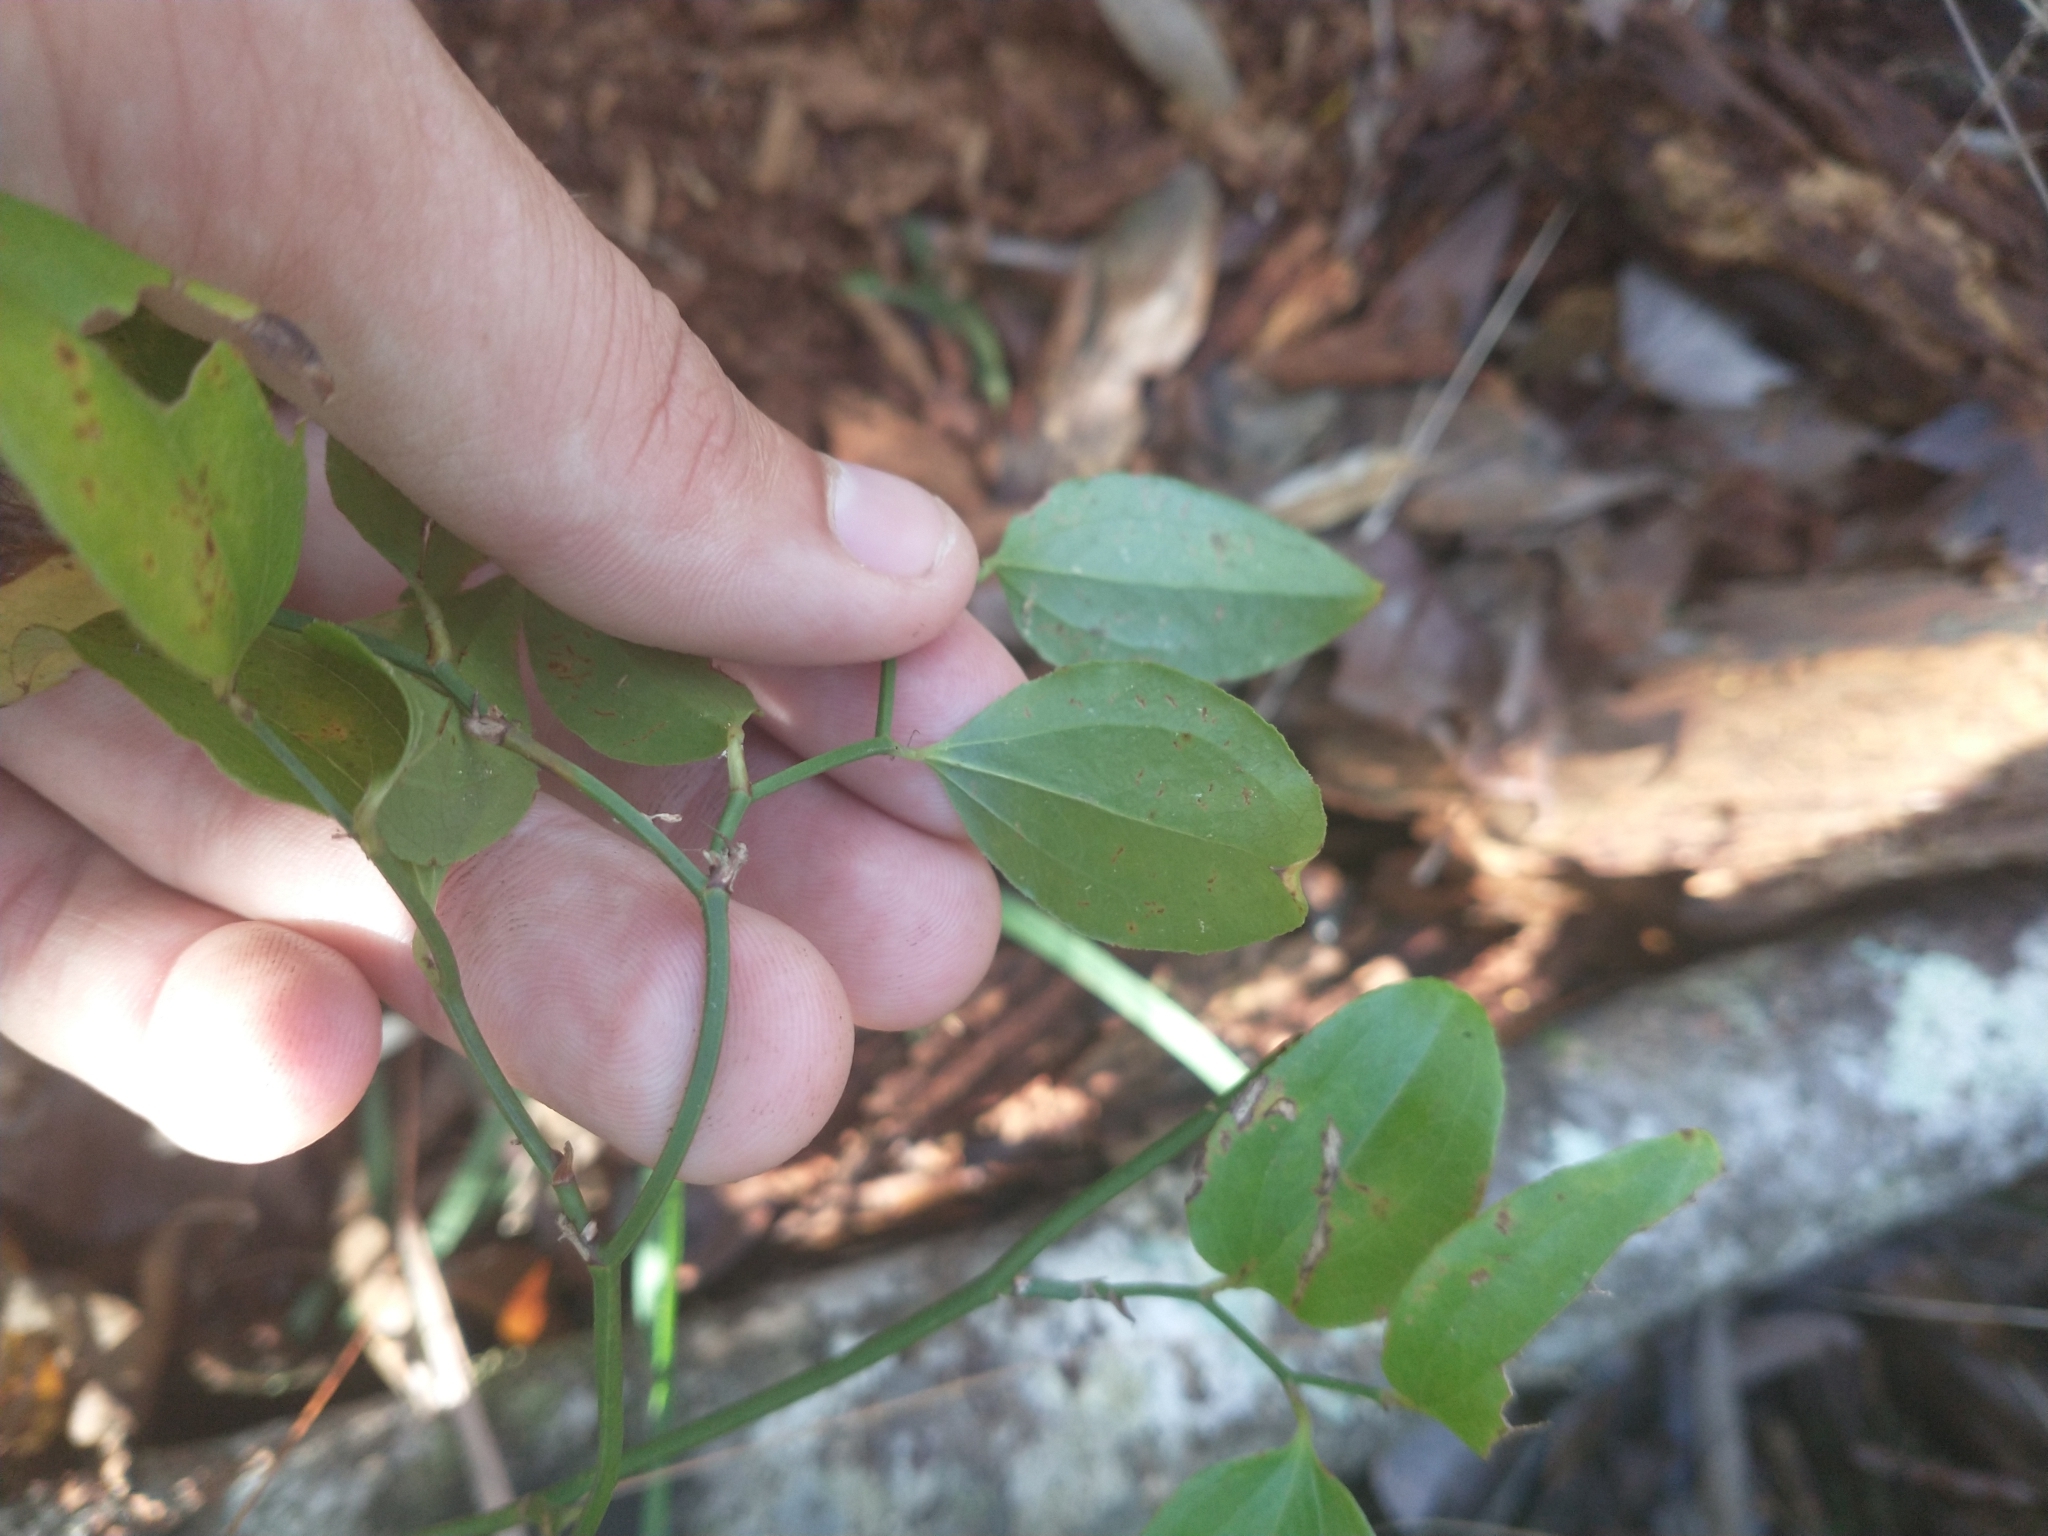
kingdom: Plantae
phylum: Tracheophyta
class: Liliopsida
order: Liliales
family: Smilacaceae
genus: Smilax
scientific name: Smilax rotundifolia
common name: Bullbriar
